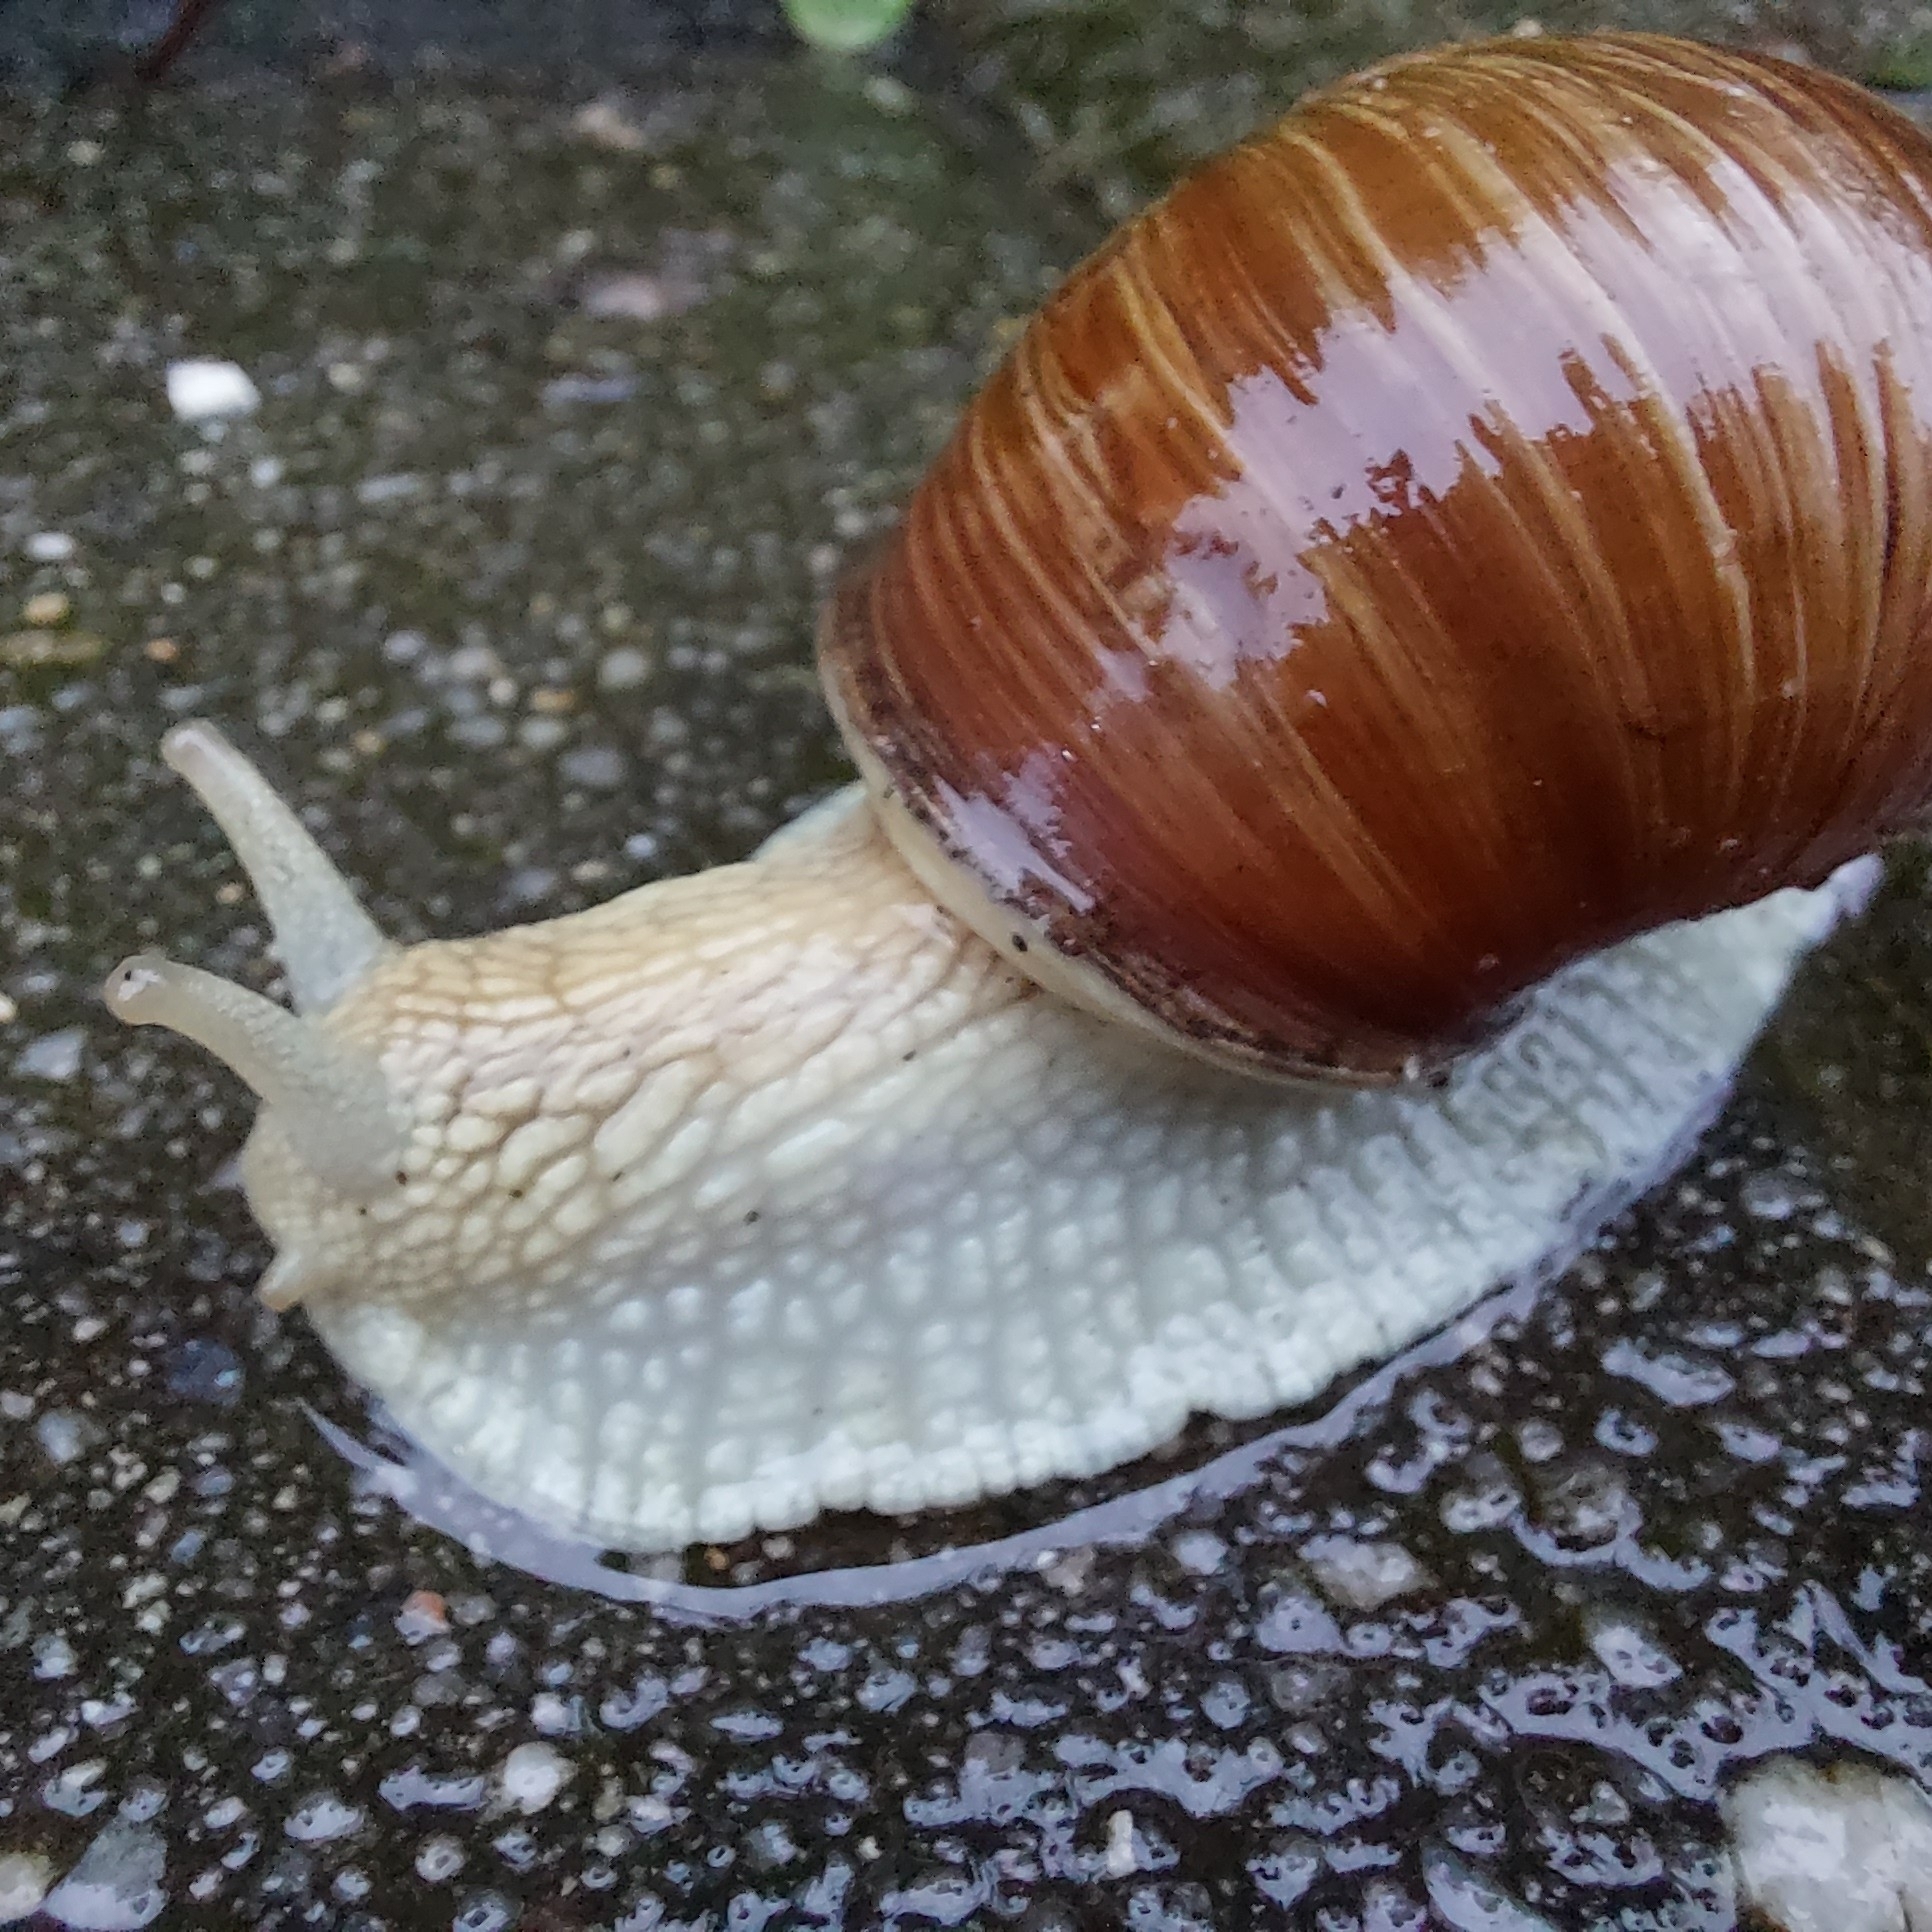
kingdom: Animalia
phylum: Mollusca
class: Gastropoda
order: Stylommatophora
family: Helicidae
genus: Helix
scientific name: Helix pomatia
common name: Roman snail
